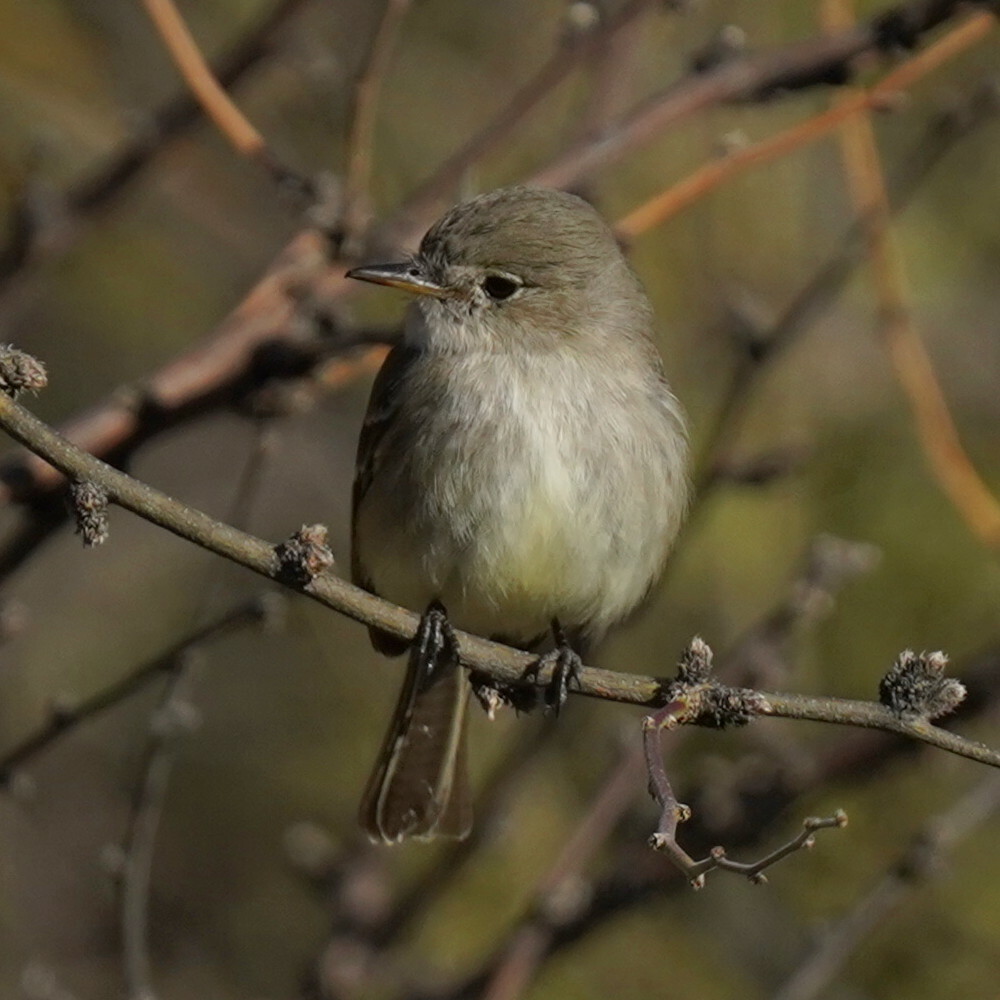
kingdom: Animalia
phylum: Chordata
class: Aves
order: Passeriformes
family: Tyrannidae
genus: Empidonax
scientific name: Empidonax wrightii
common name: Gray flycatcher
